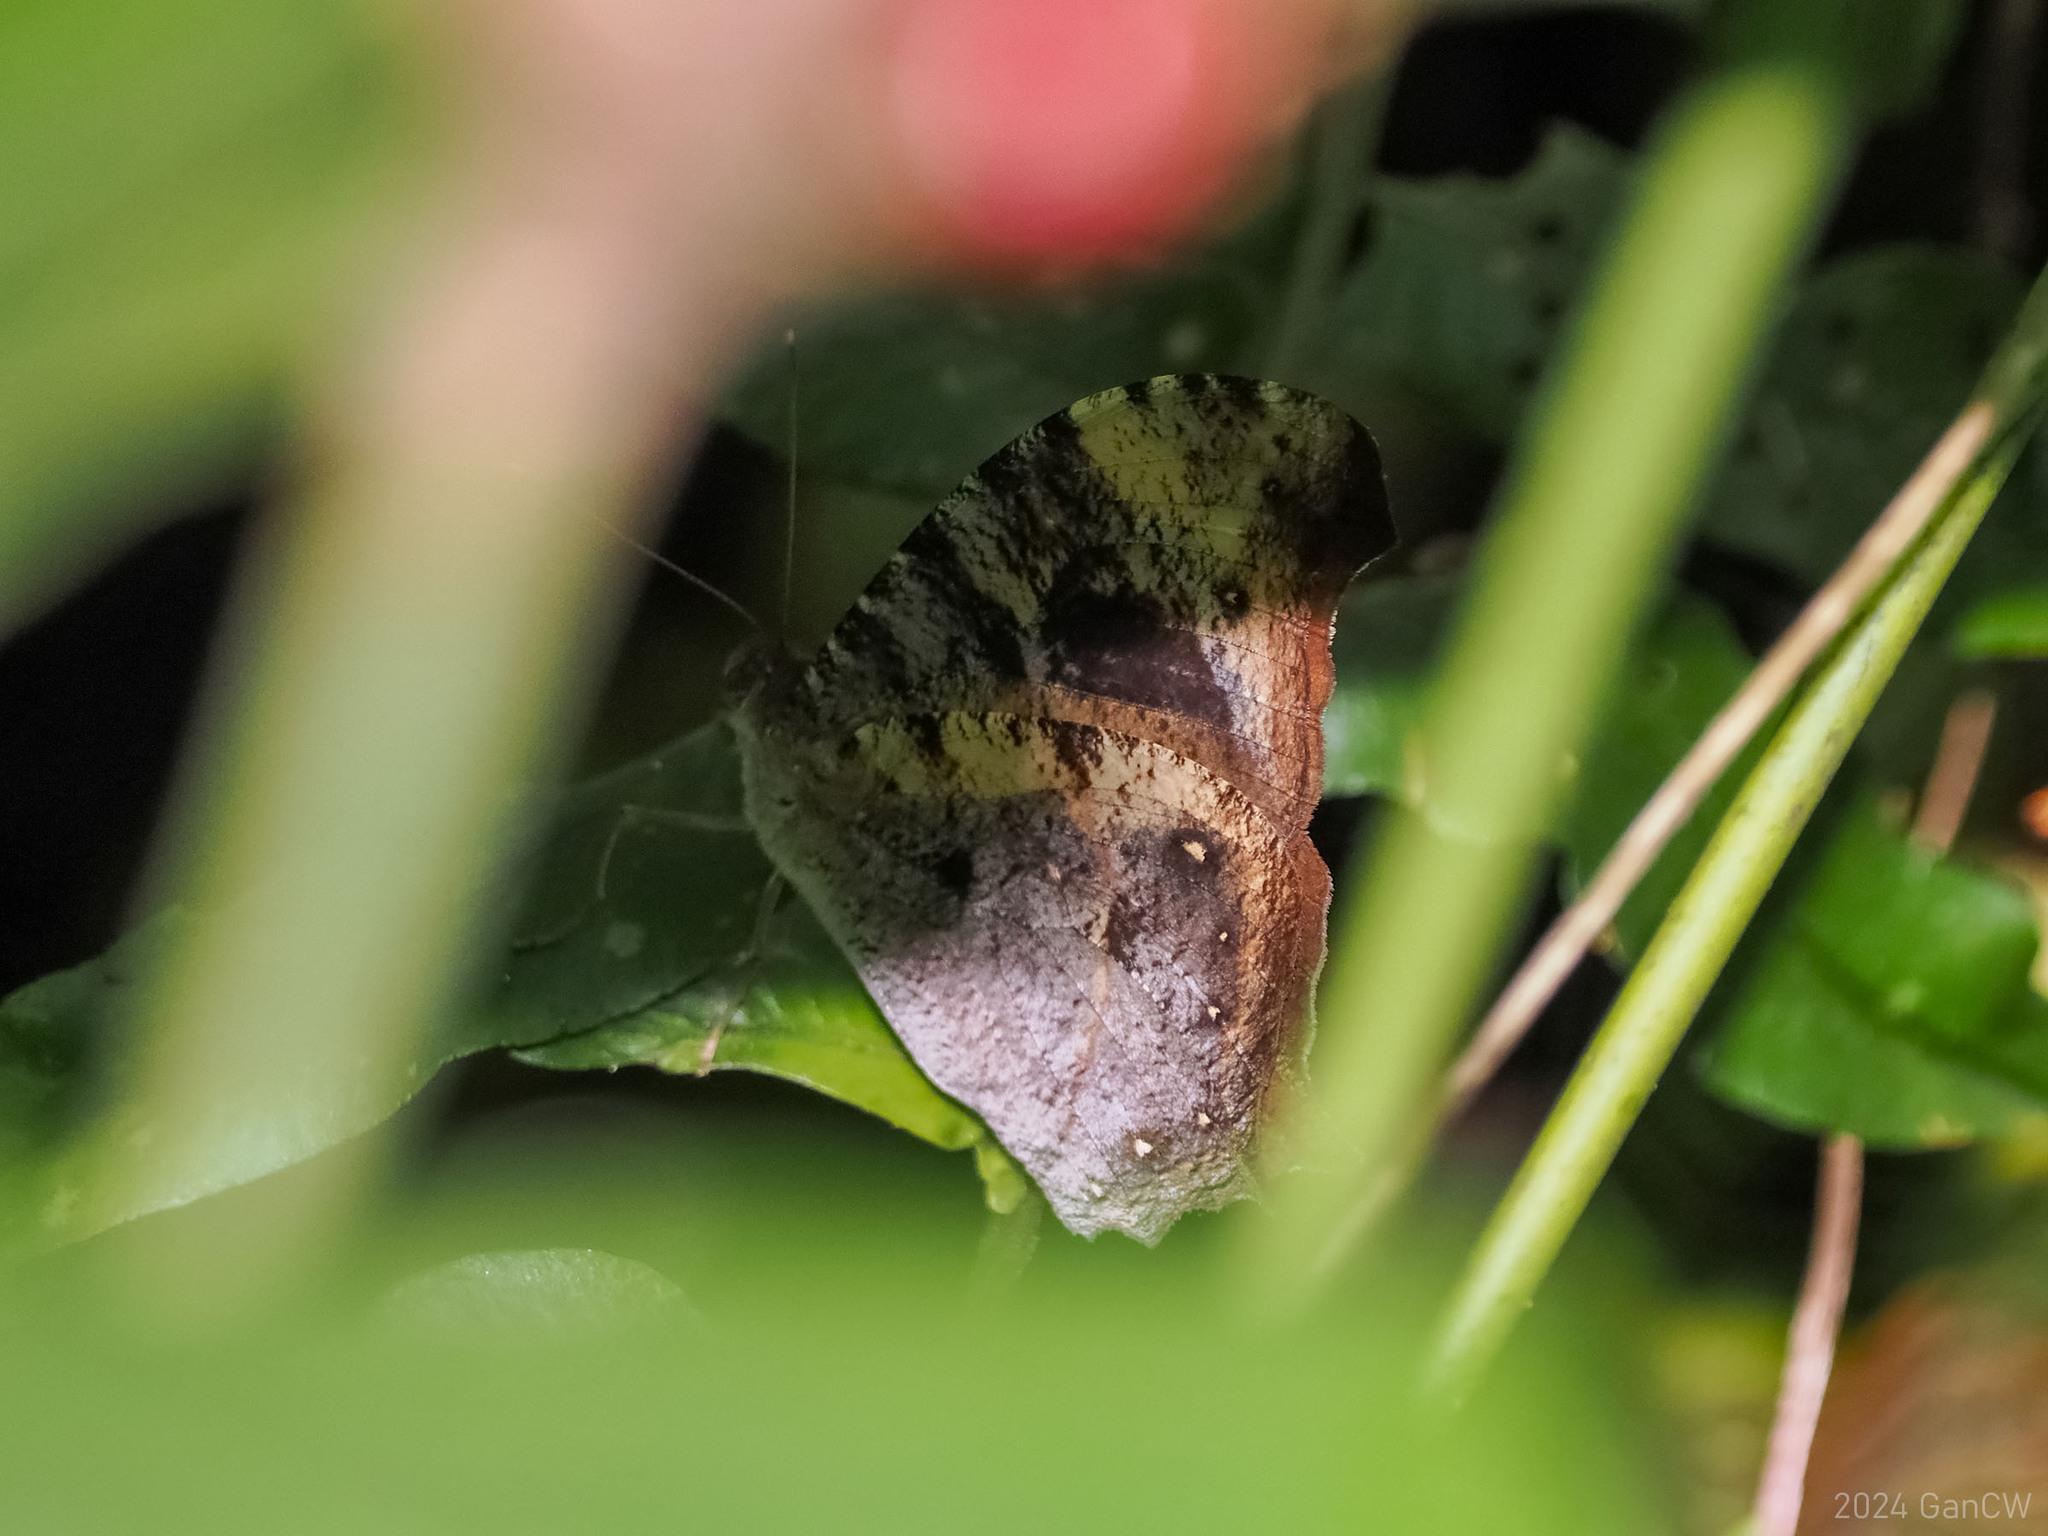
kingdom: Animalia
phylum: Arthropoda
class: Insecta
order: Lepidoptera
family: Nymphalidae
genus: Melanitis
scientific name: Melanitis atrax
